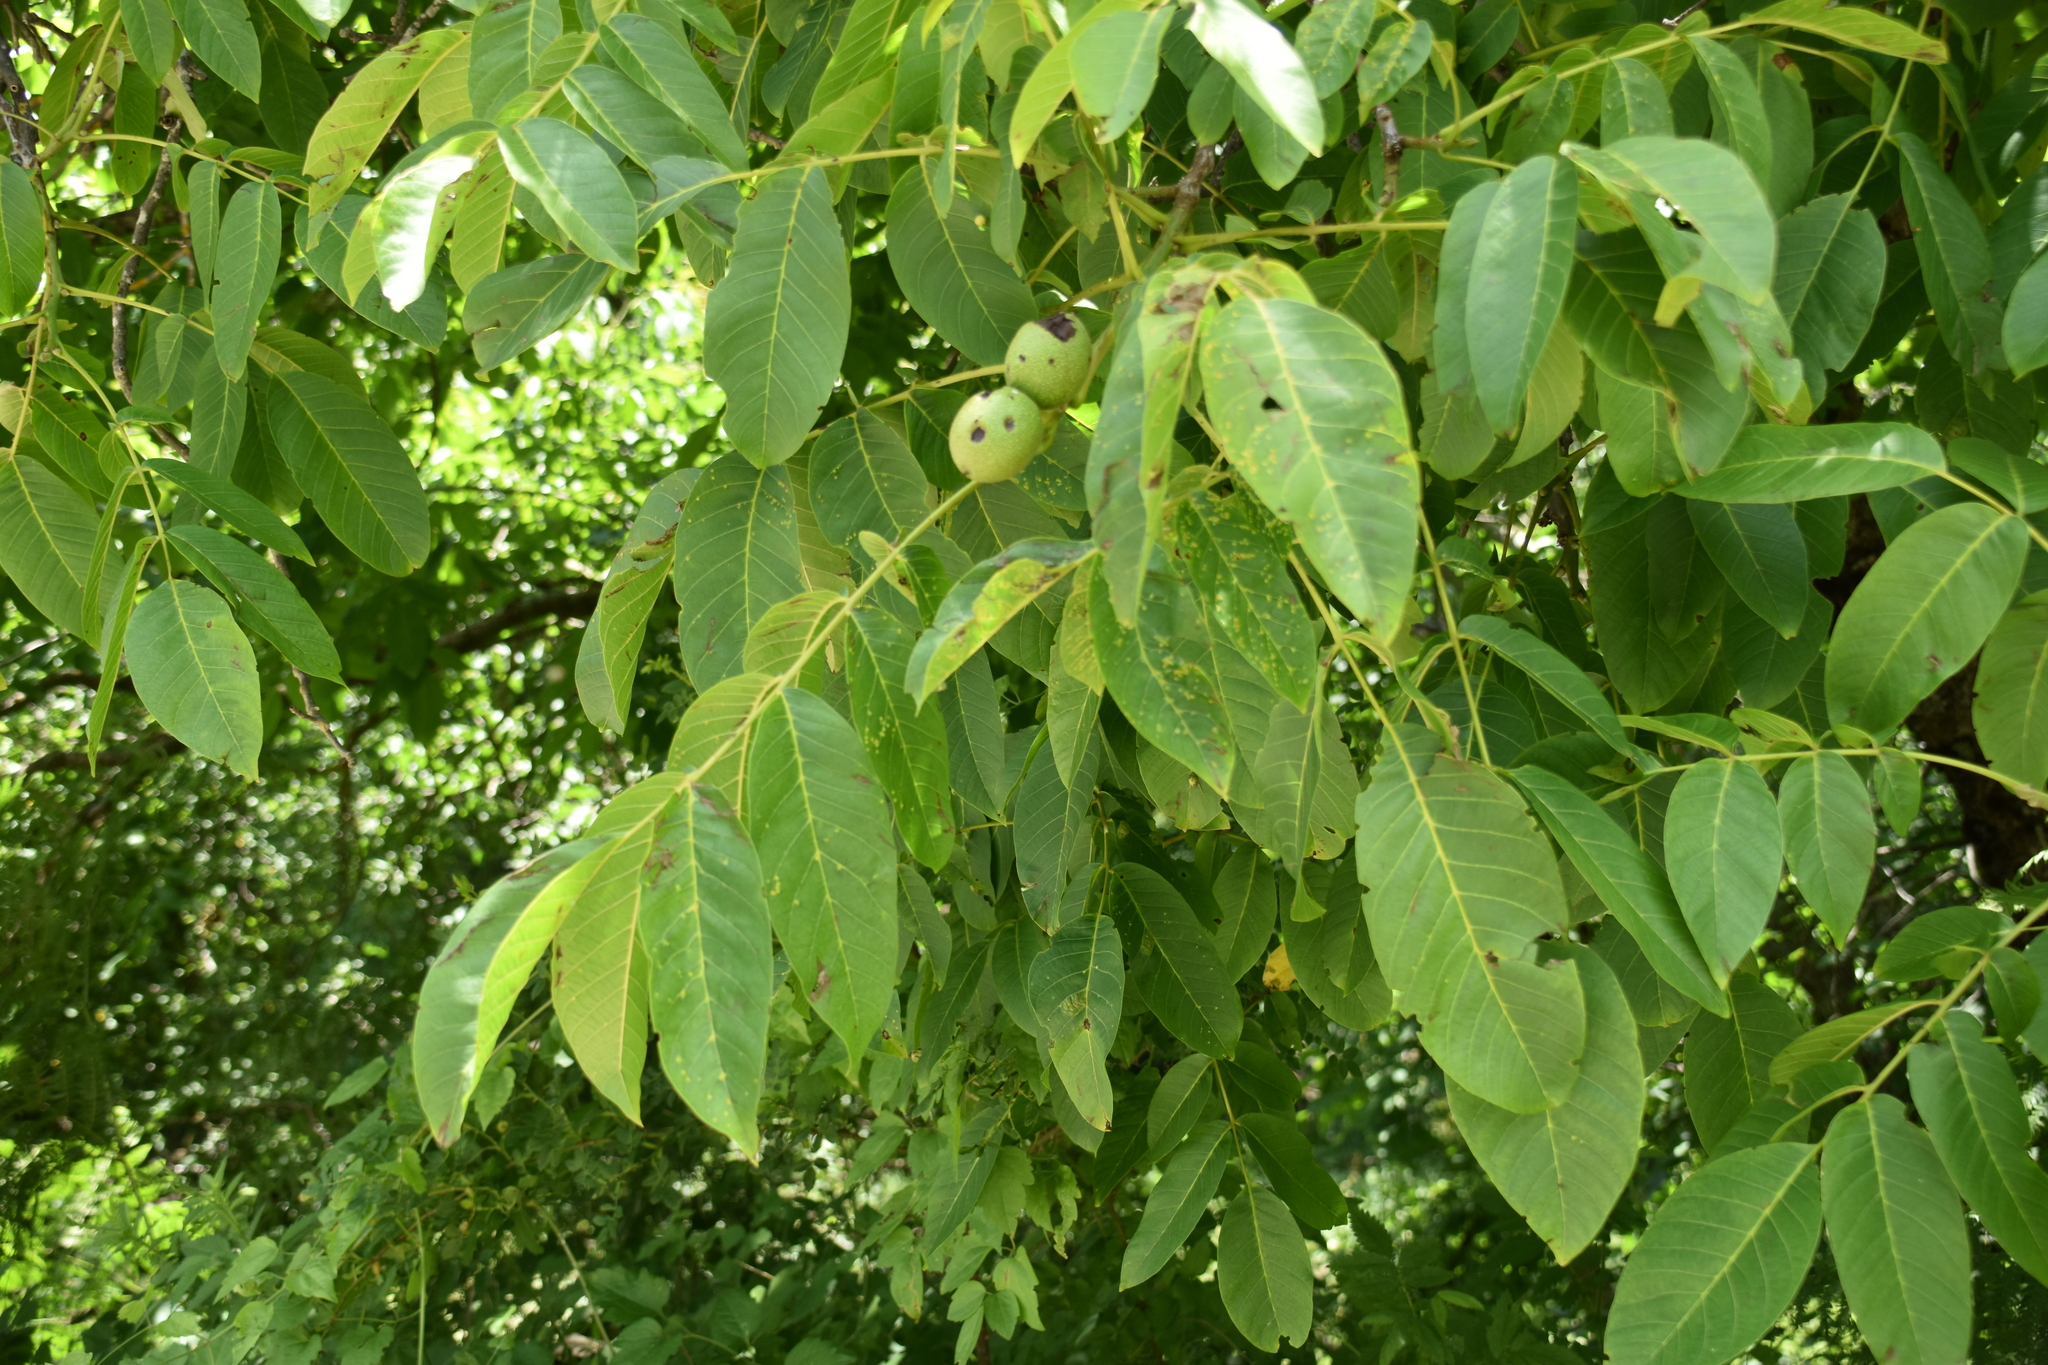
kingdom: Plantae
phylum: Tracheophyta
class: Magnoliopsida
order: Fagales
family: Juglandaceae
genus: Juglans
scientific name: Juglans regia
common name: Walnut
